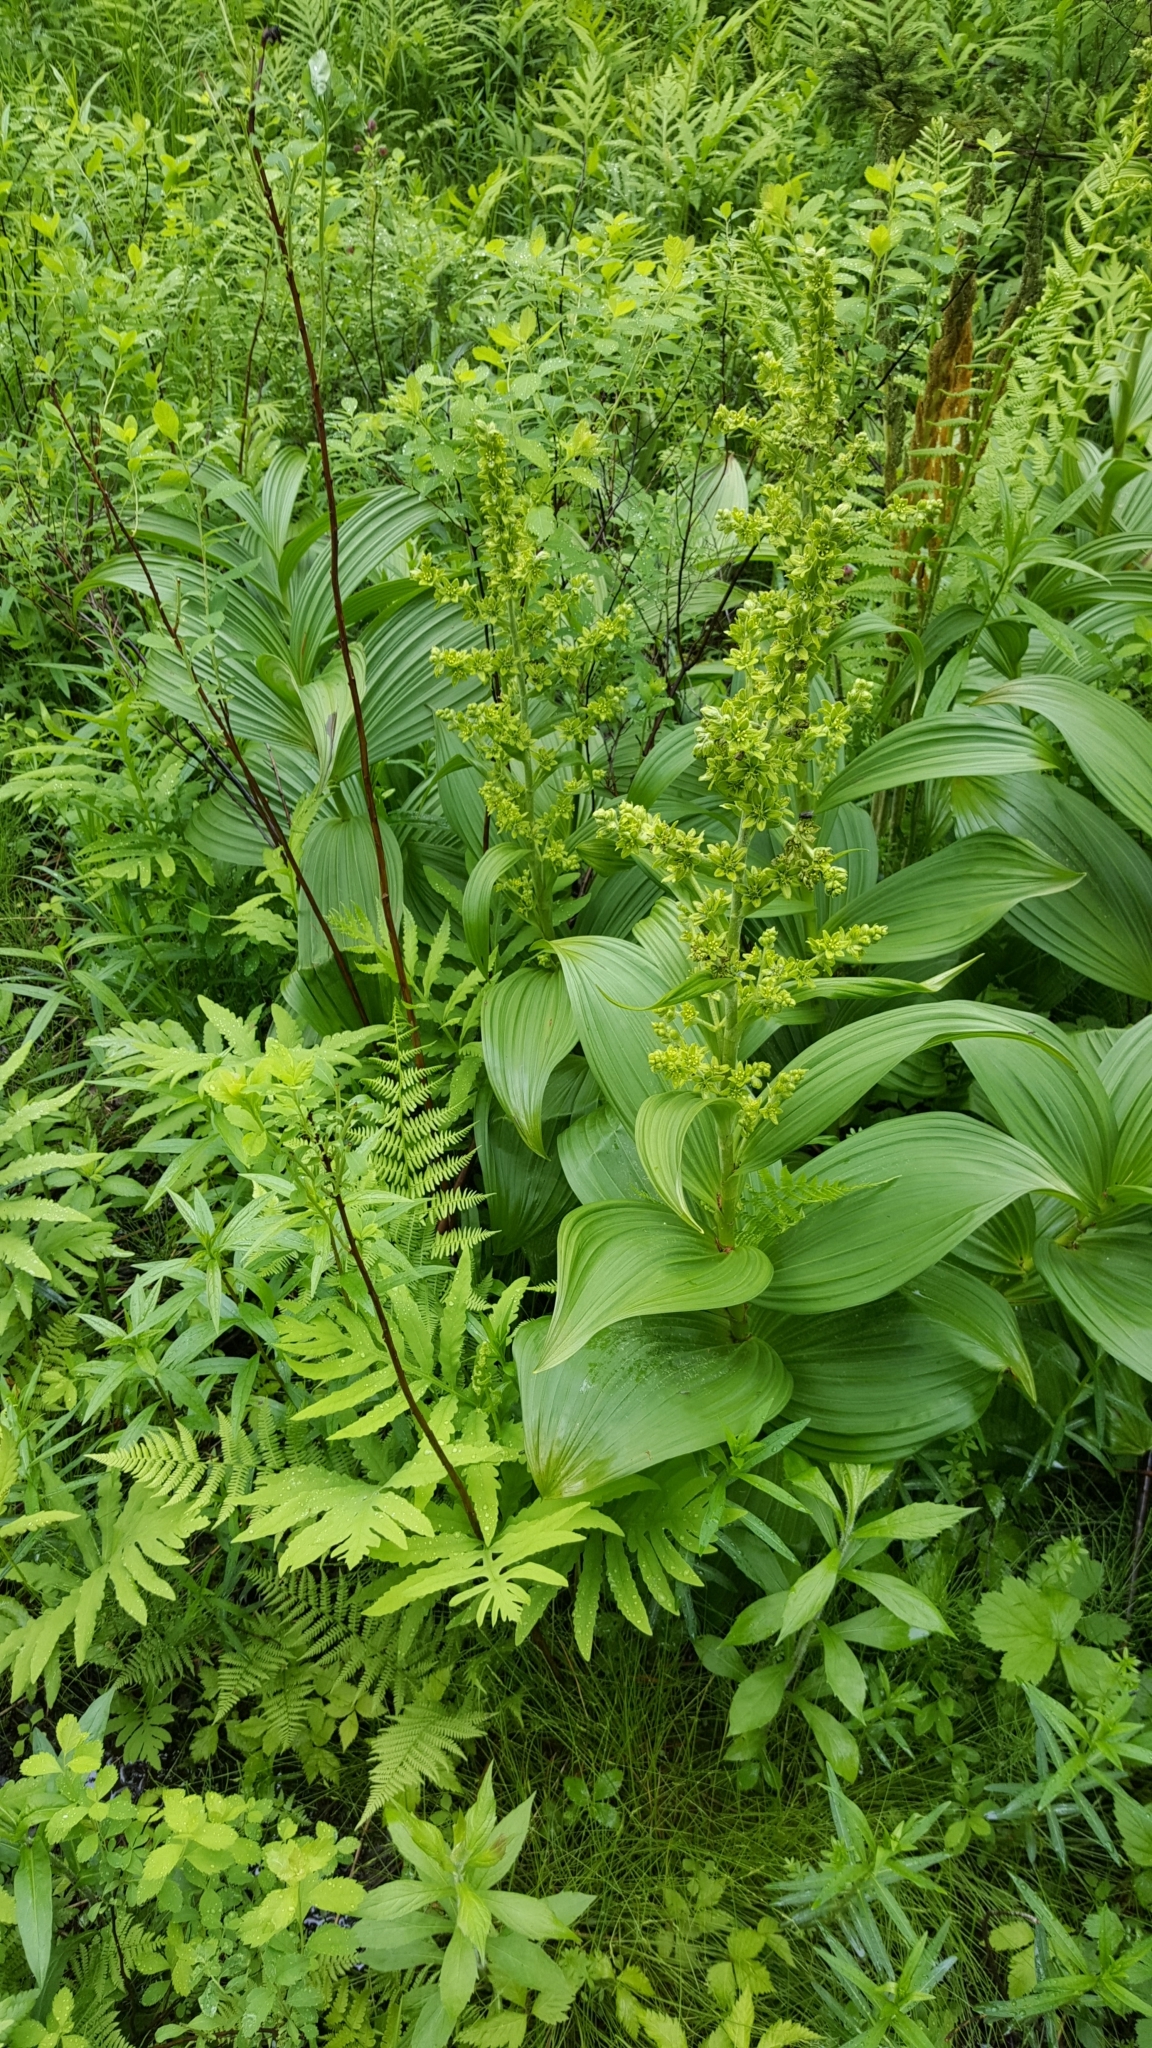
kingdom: Plantae
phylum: Tracheophyta
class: Liliopsida
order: Liliales
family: Melanthiaceae
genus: Veratrum
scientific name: Veratrum viride
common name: American false hellebore
